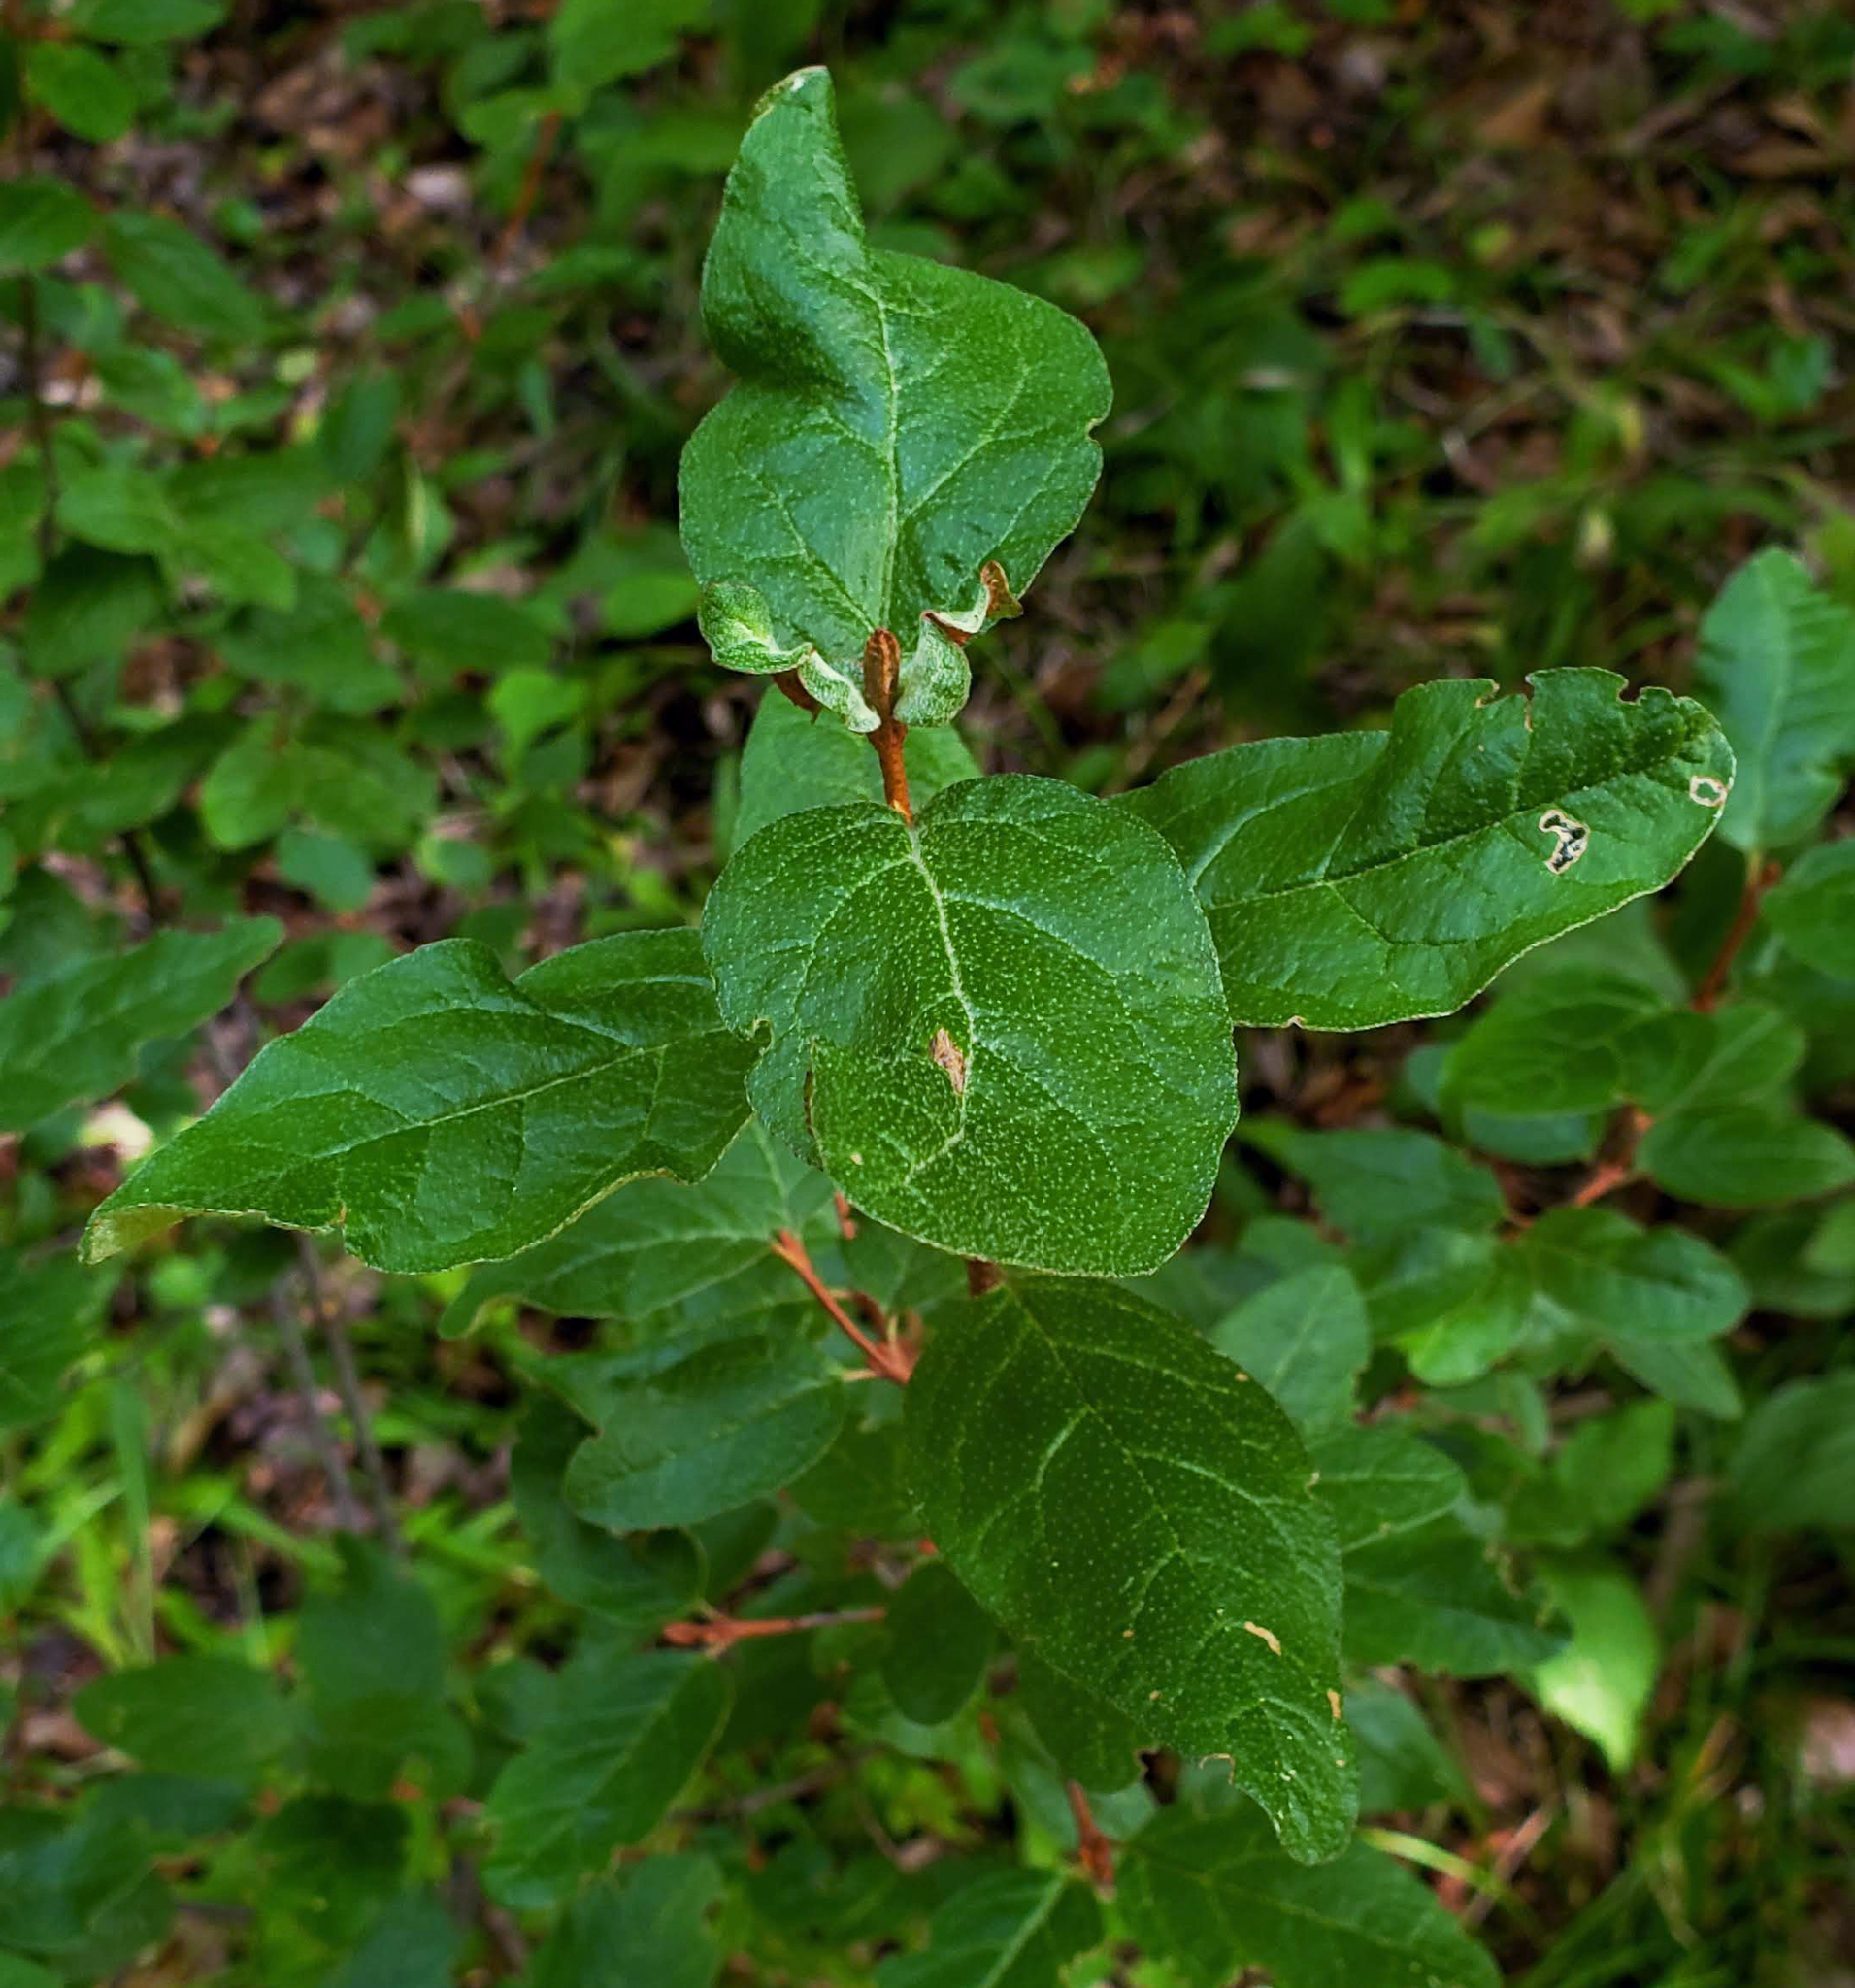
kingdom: Plantae
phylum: Tracheophyta
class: Magnoliopsida
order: Rosales
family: Elaeagnaceae
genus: Shepherdia
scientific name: Shepherdia canadensis
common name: Soapberry
